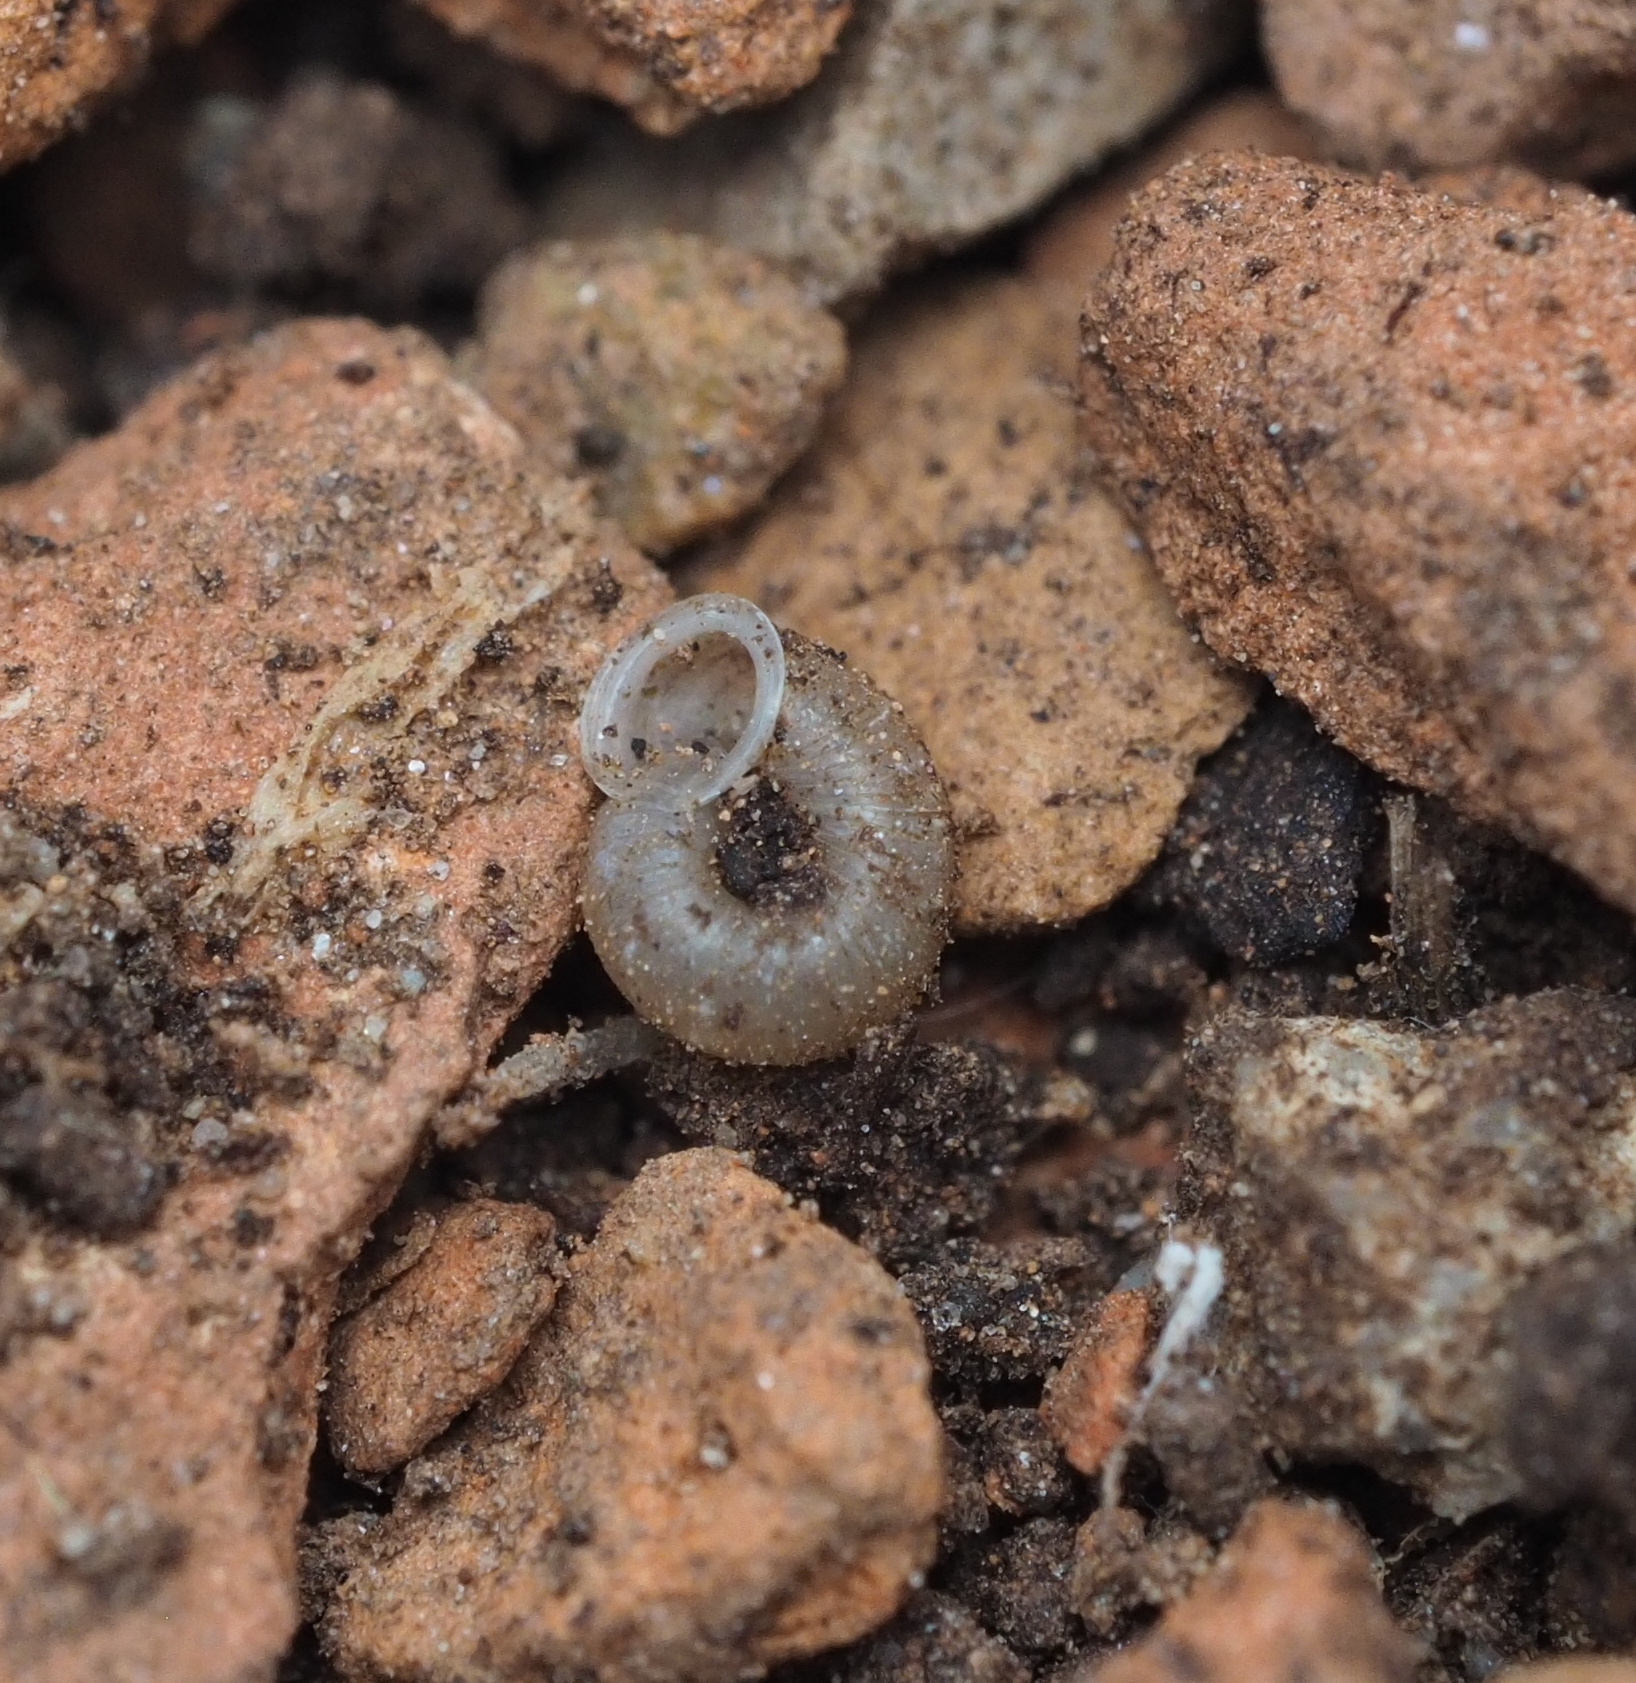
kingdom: Animalia
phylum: Mollusca
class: Gastropoda
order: Stylommatophora
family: Valloniidae
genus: Vallonia
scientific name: Vallonia costata
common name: Ribbed grass snail
